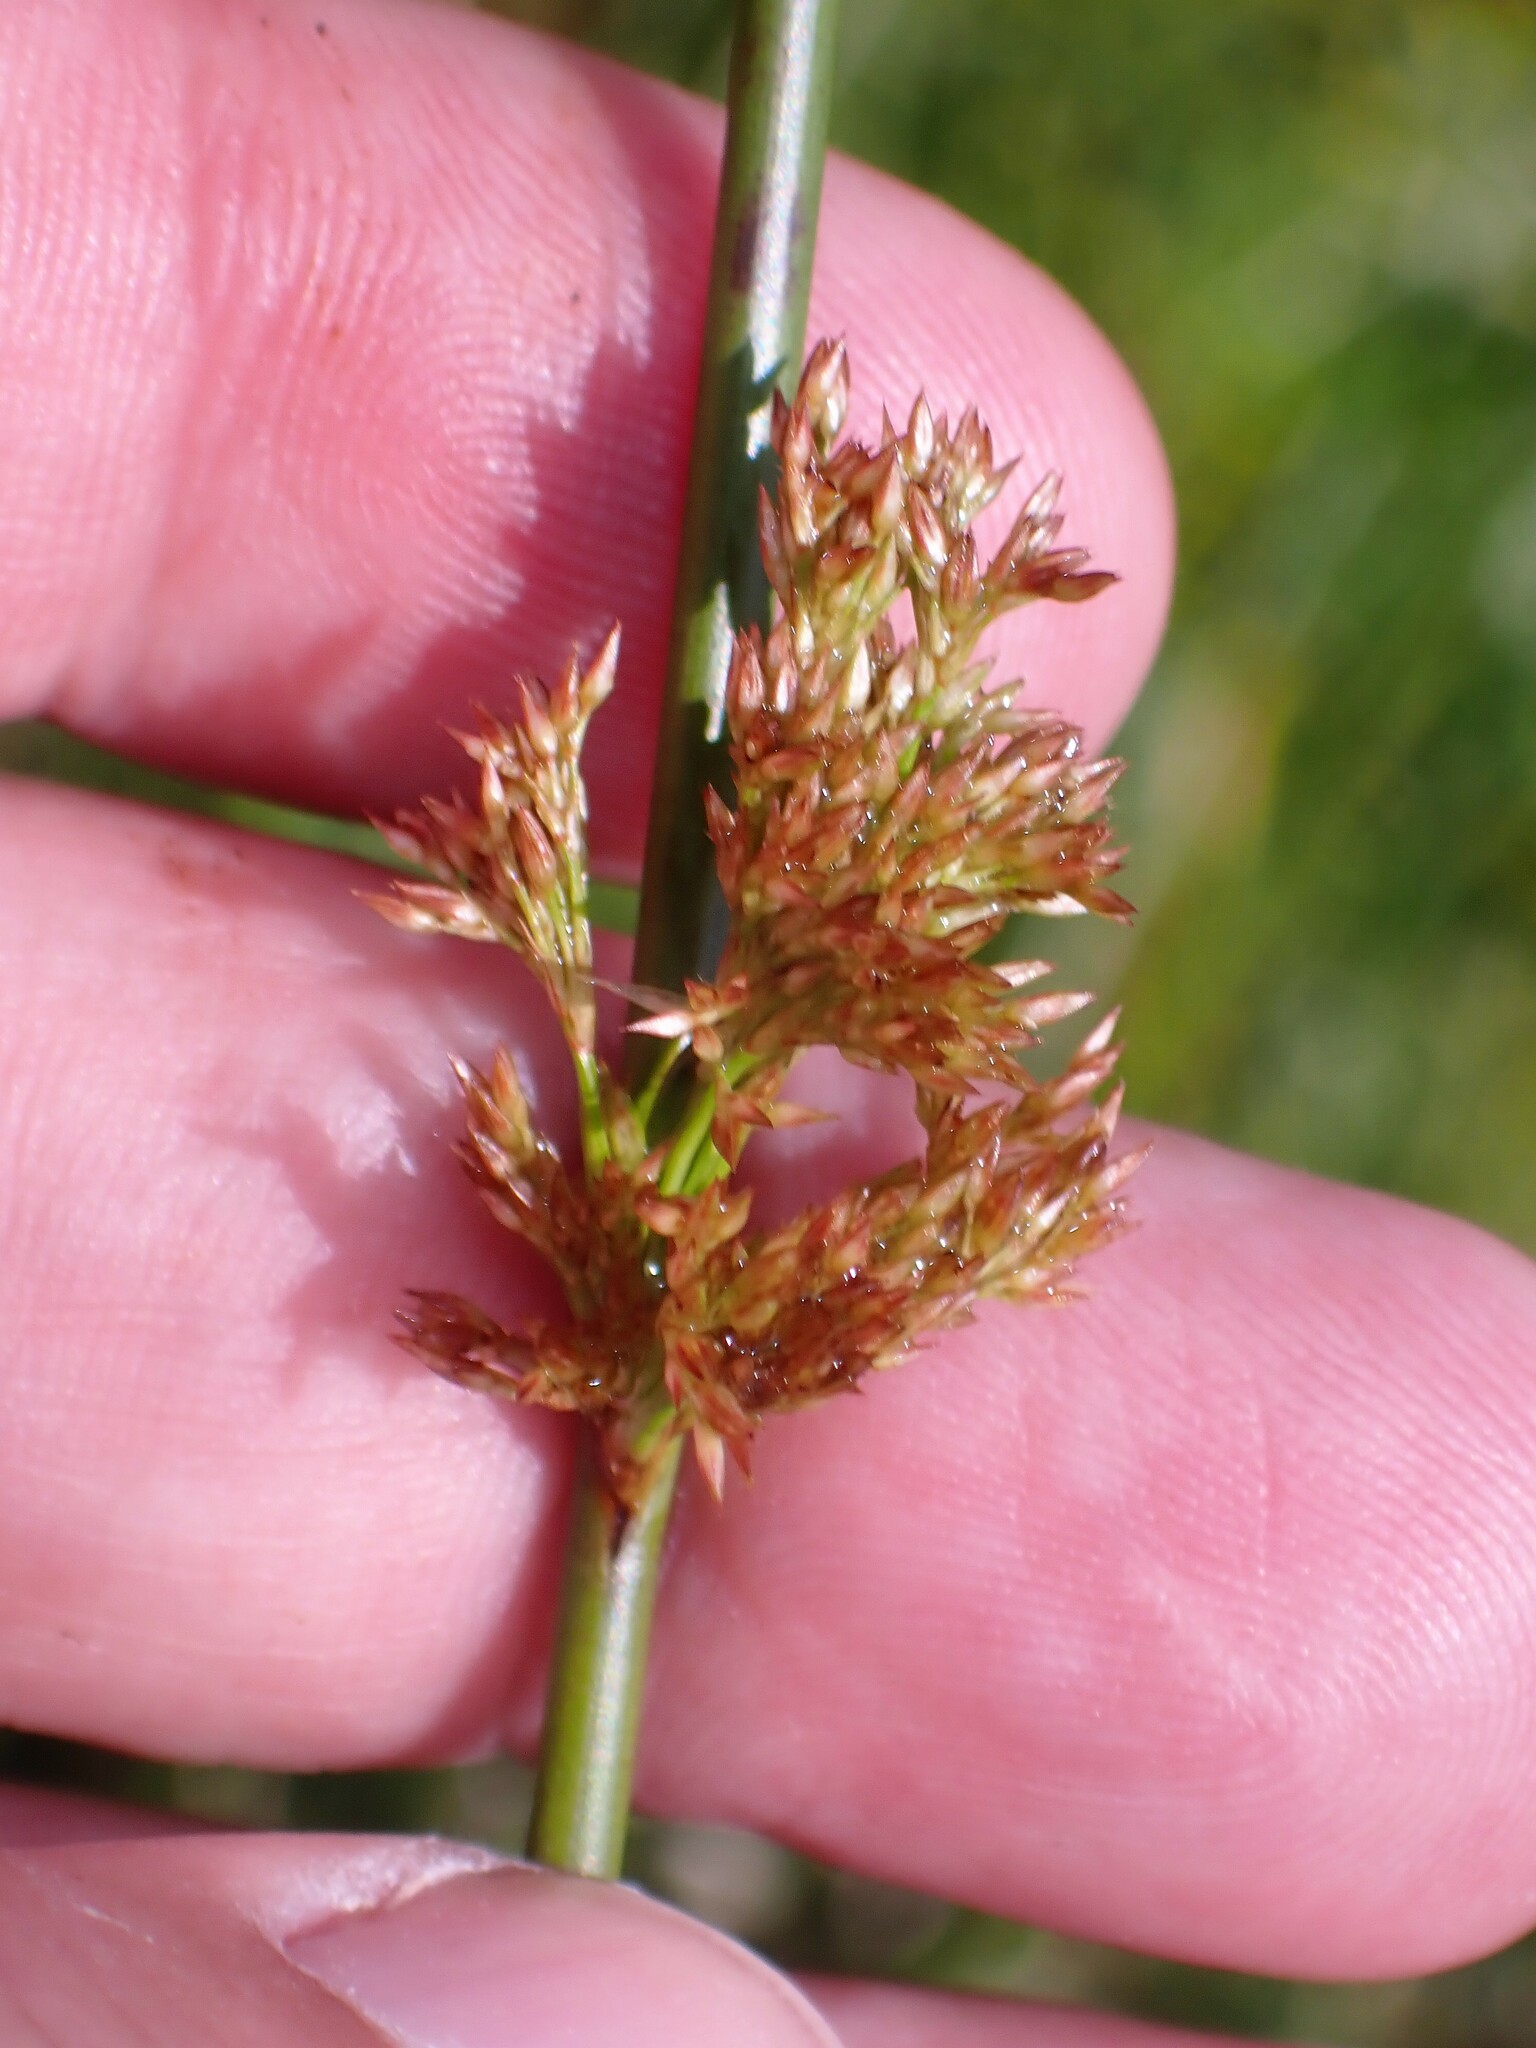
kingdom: Plantae
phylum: Tracheophyta
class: Liliopsida
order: Poales
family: Juncaceae
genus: Juncus
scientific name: Juncus effusus
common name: Soft rush
